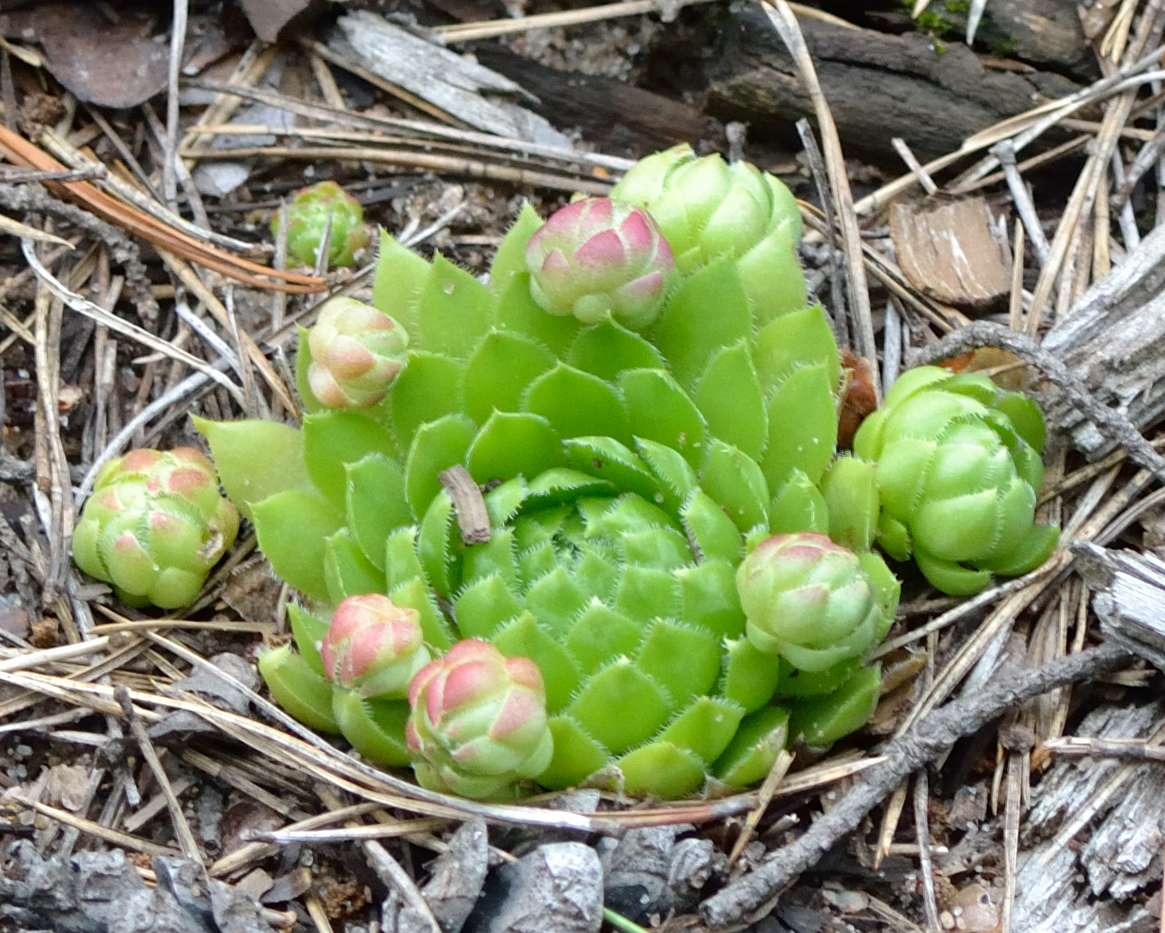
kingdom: Plantae
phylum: Tracheophyta
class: Magnoliopsida
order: Saxifragales
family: Crassulaceae
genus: Sempervivum
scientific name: Sempervivum globiferum
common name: Rolling hen-and-chicks
